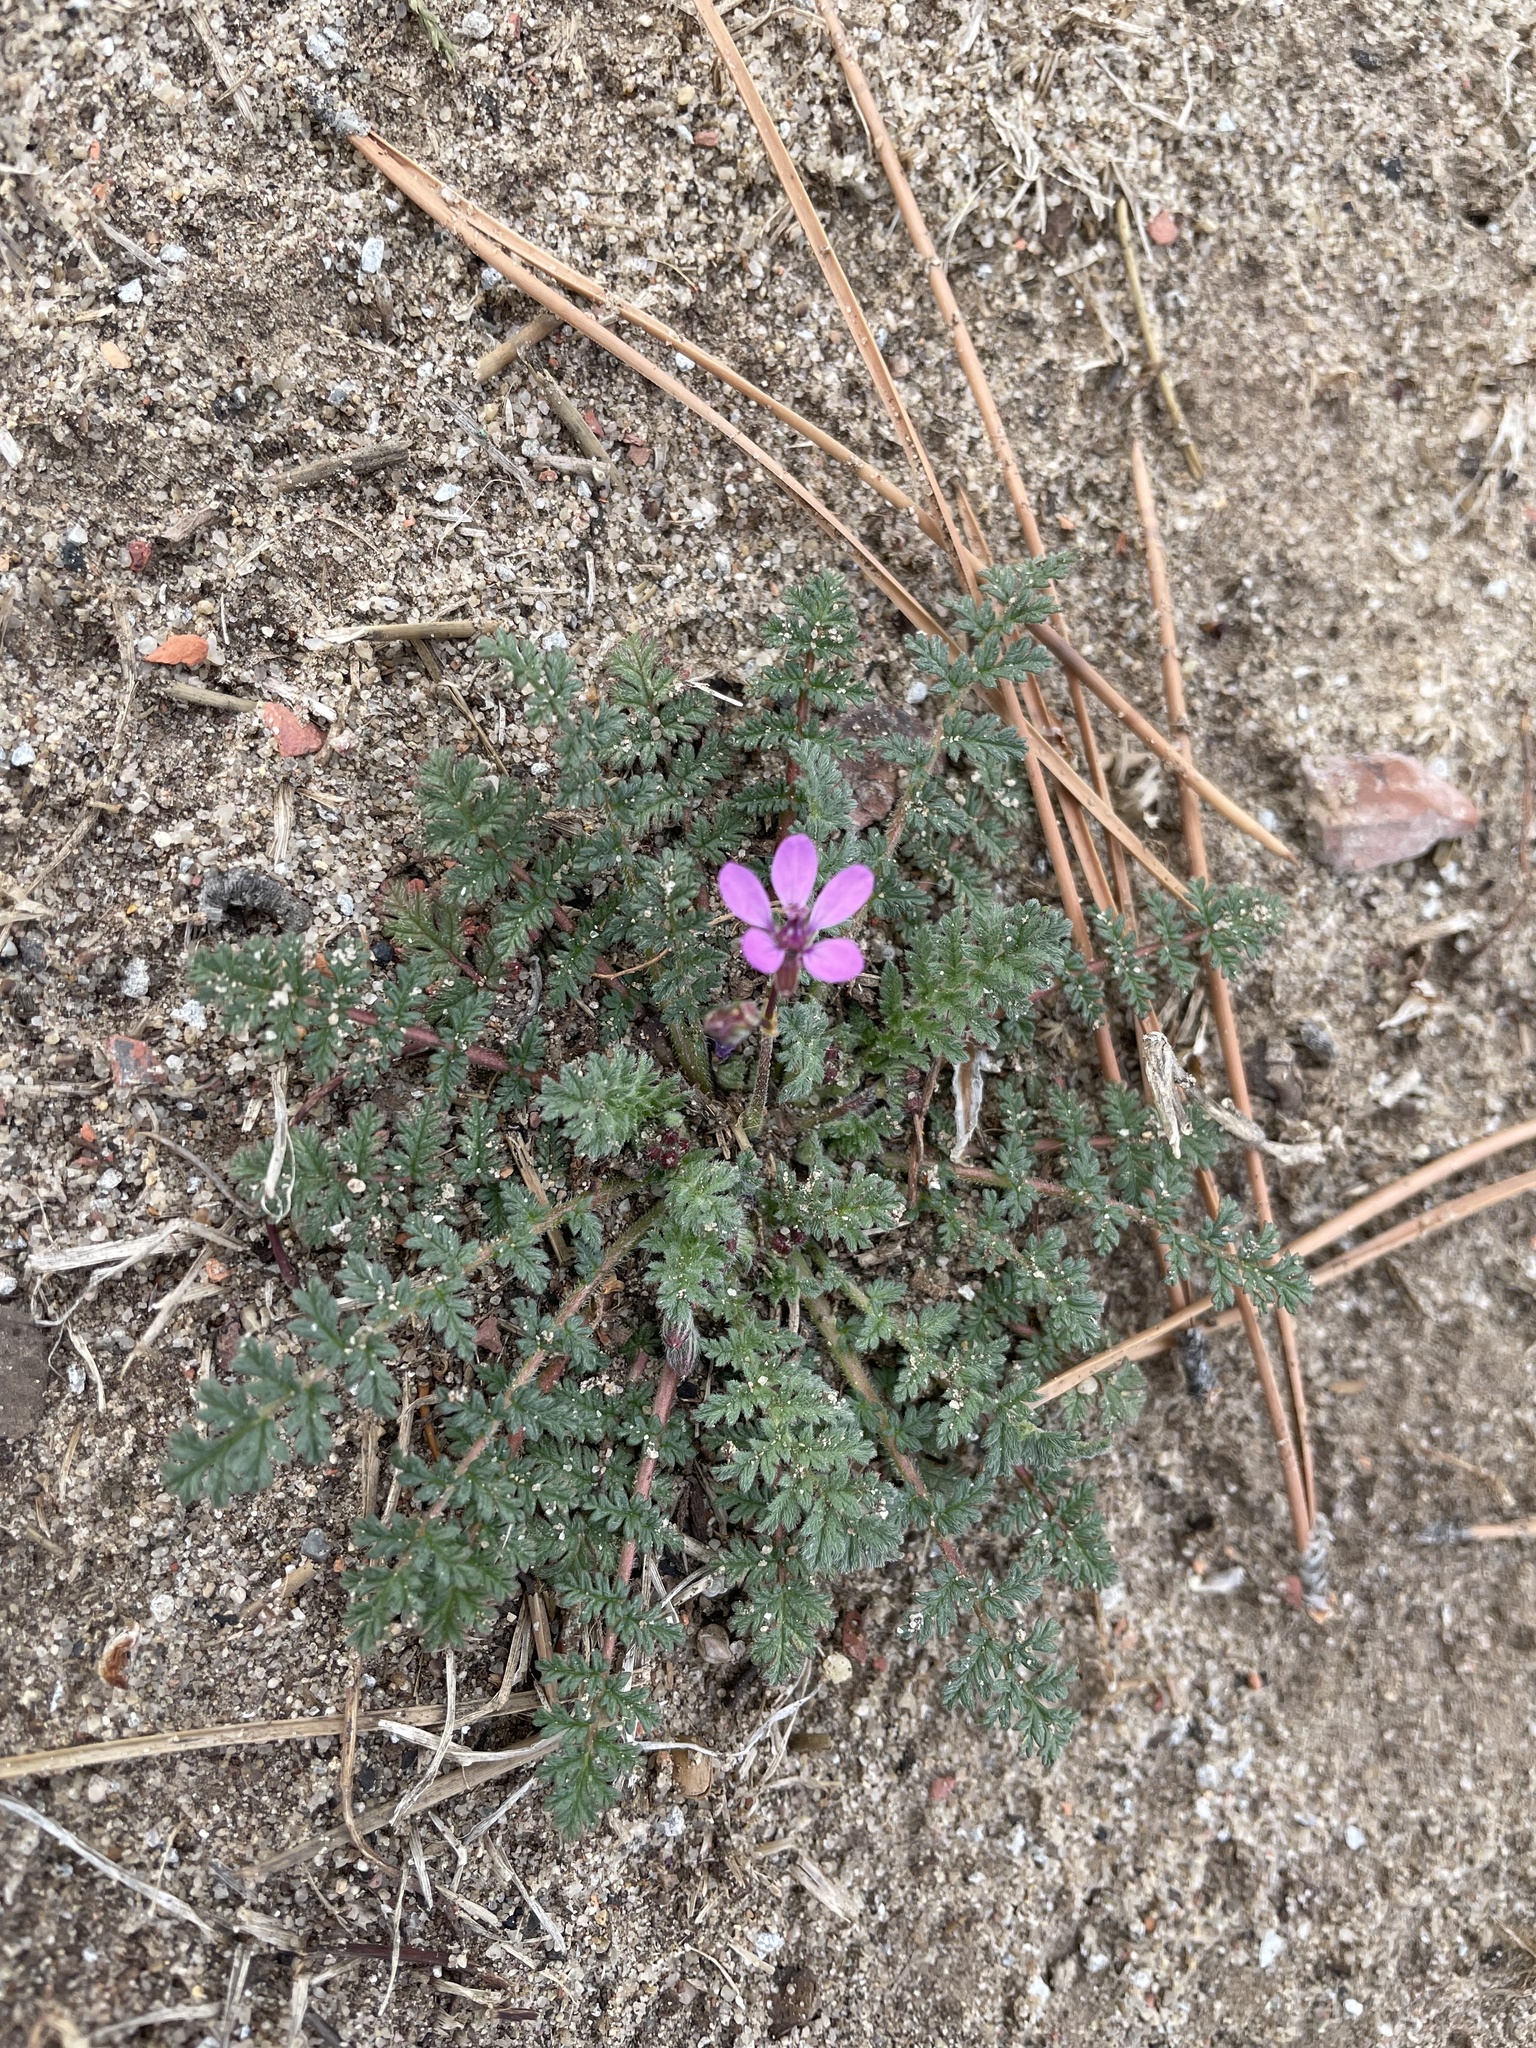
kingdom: Plantae
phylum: Tracheophyta
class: Magnoliopsida
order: Geraniales
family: Geraniaceae
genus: Erodium
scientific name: Erodium cicutarium
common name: Common stork's-bill
